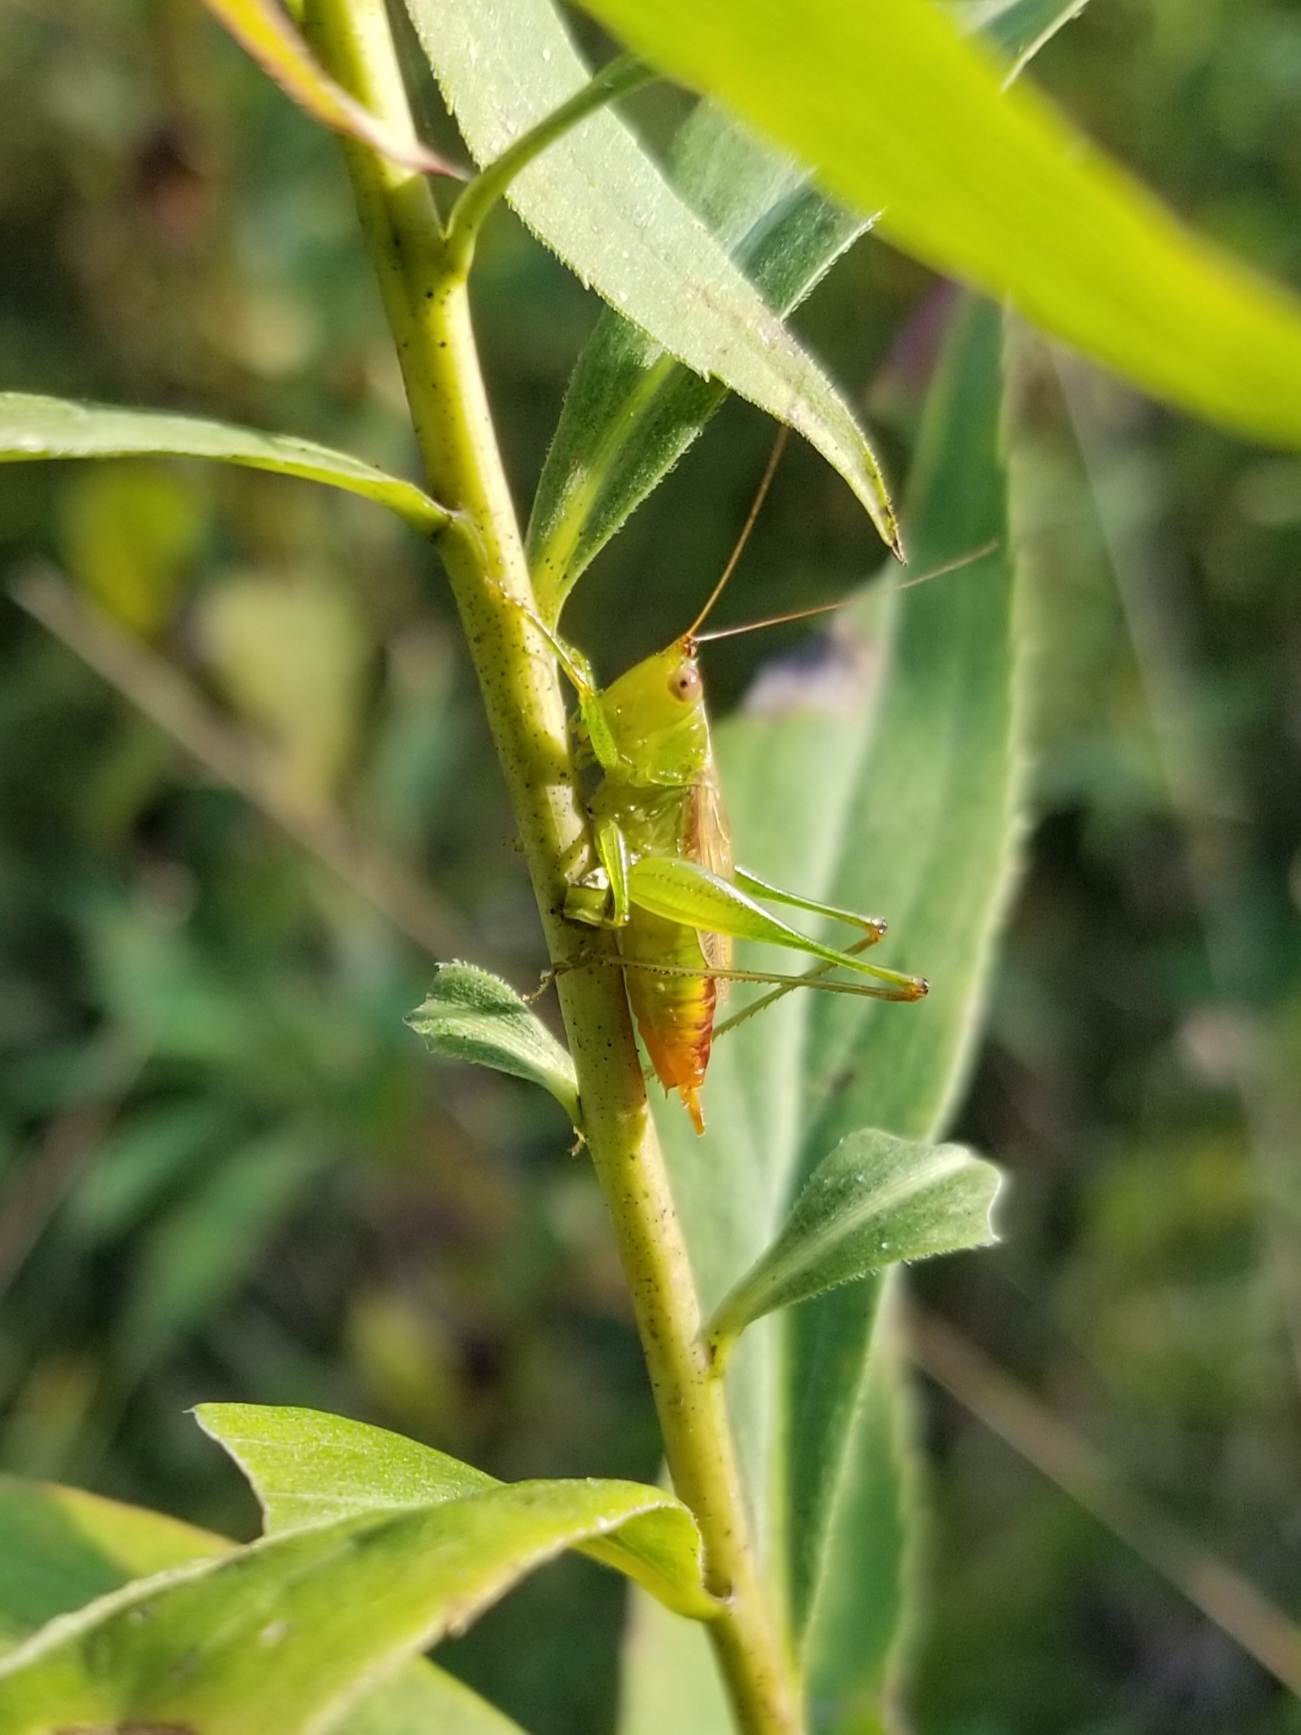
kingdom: Animalia
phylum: Arthropoda
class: Insecta
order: Orthoptera
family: Tettigoniidae
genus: Conocephalus
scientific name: Conocephalus brevipennis
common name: Short-winged meadow katydid
